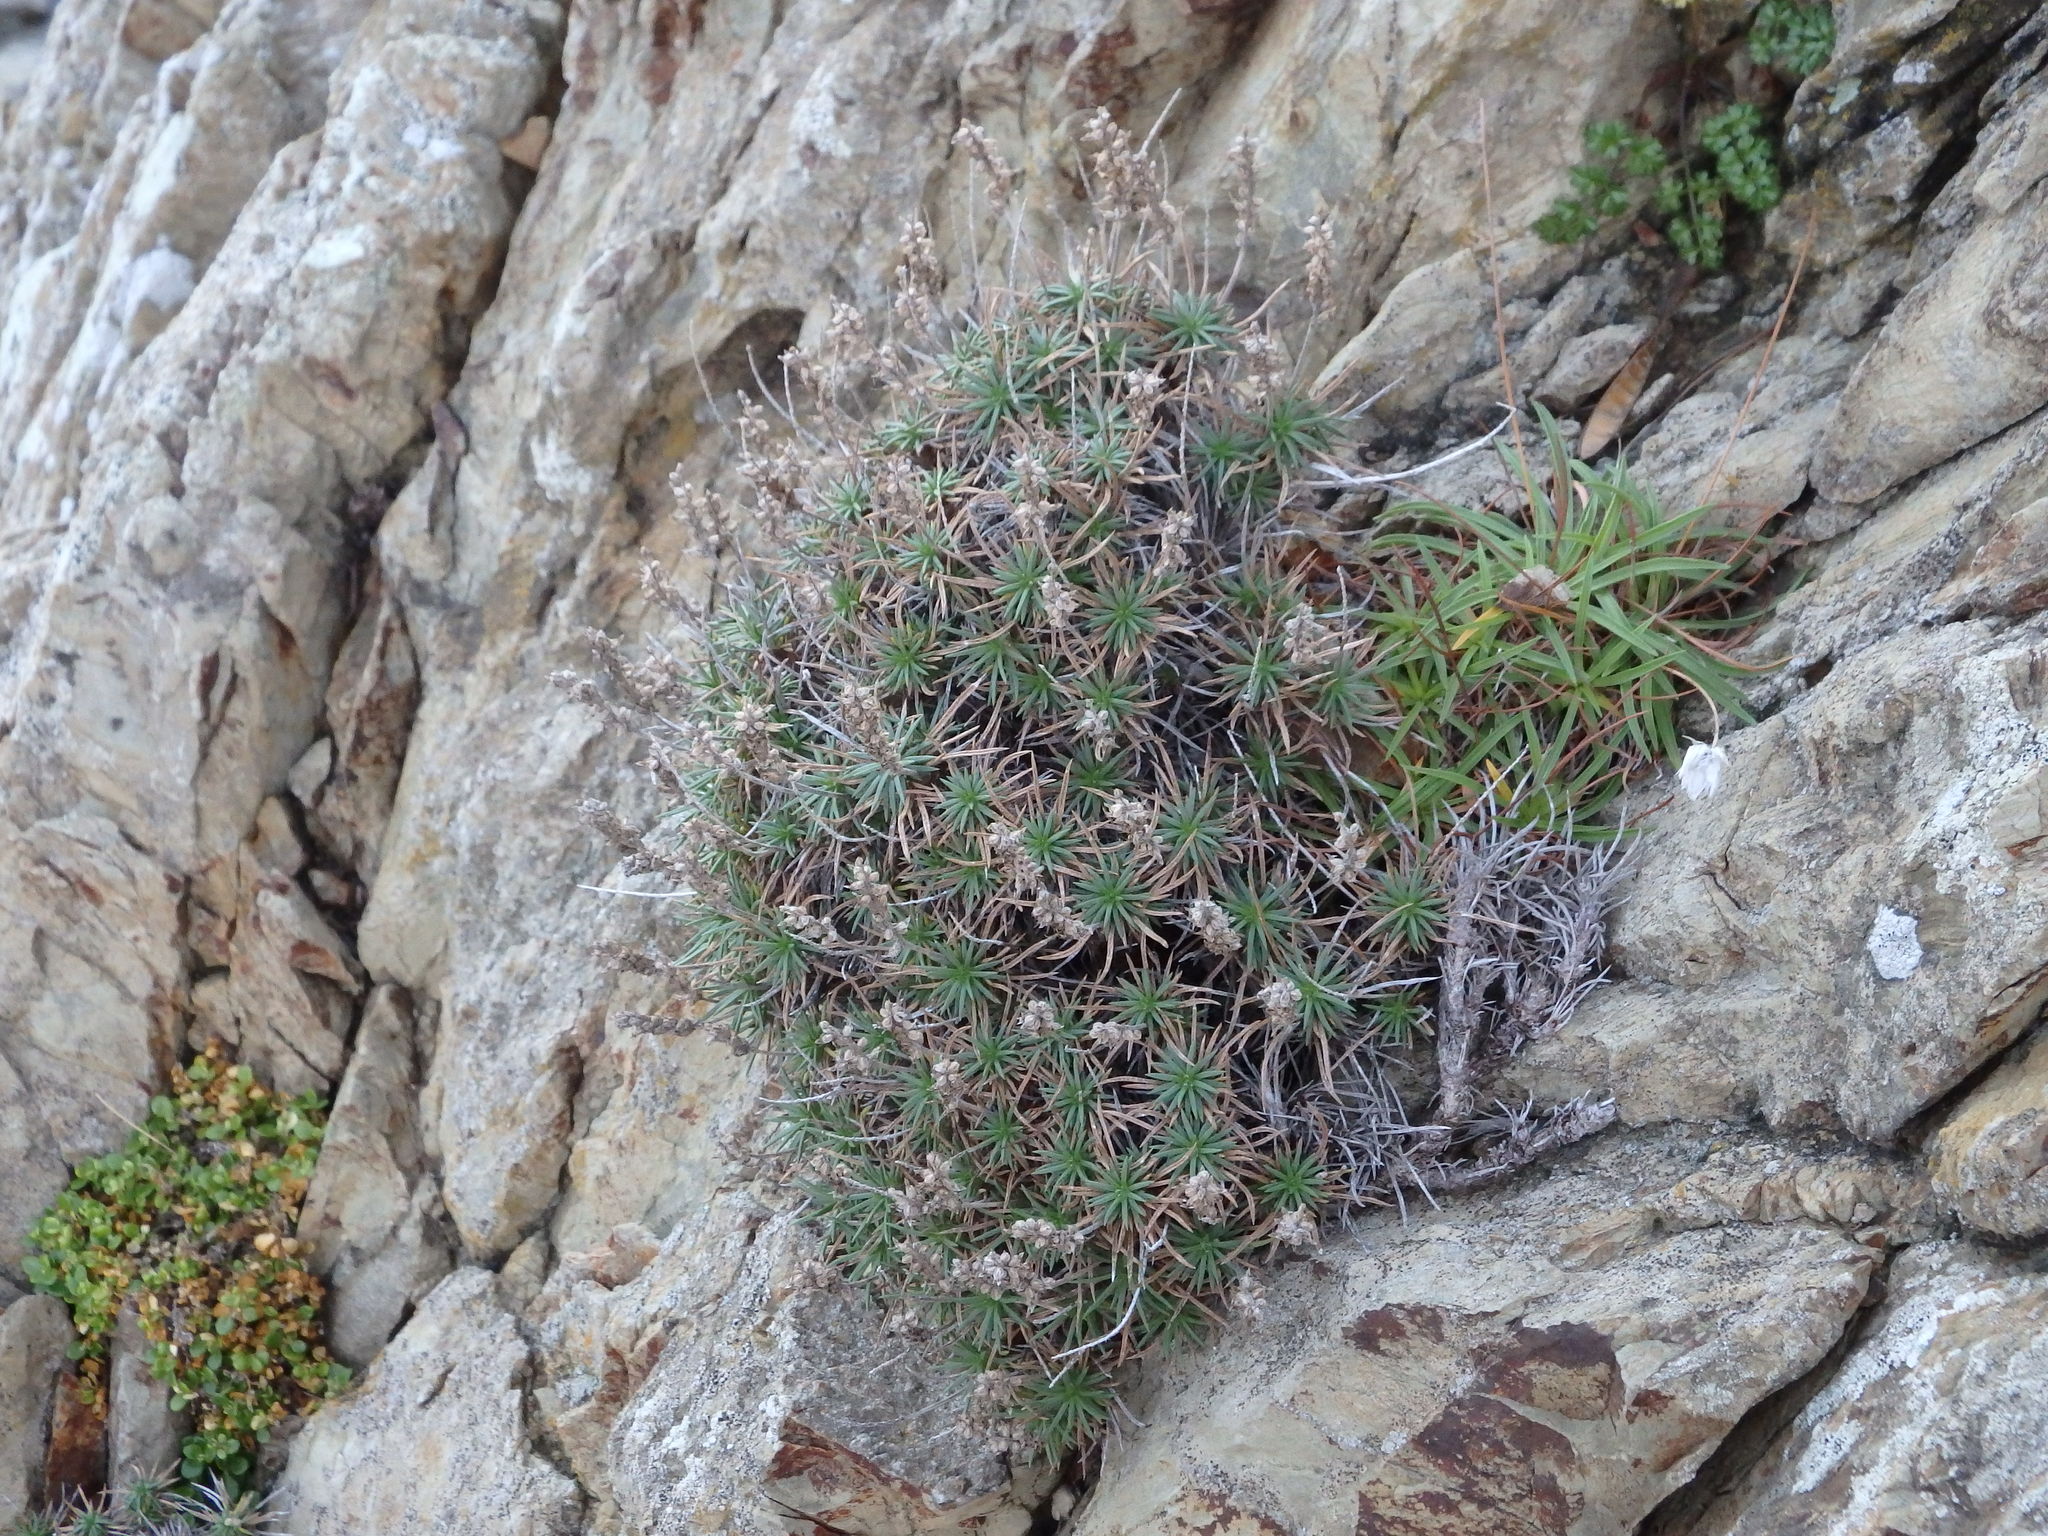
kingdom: Plantae
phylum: Tracheophyta
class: Magnoliopsida
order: Lamiales
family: Plantaginaceae
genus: Plantago
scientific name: Plantago subulata
